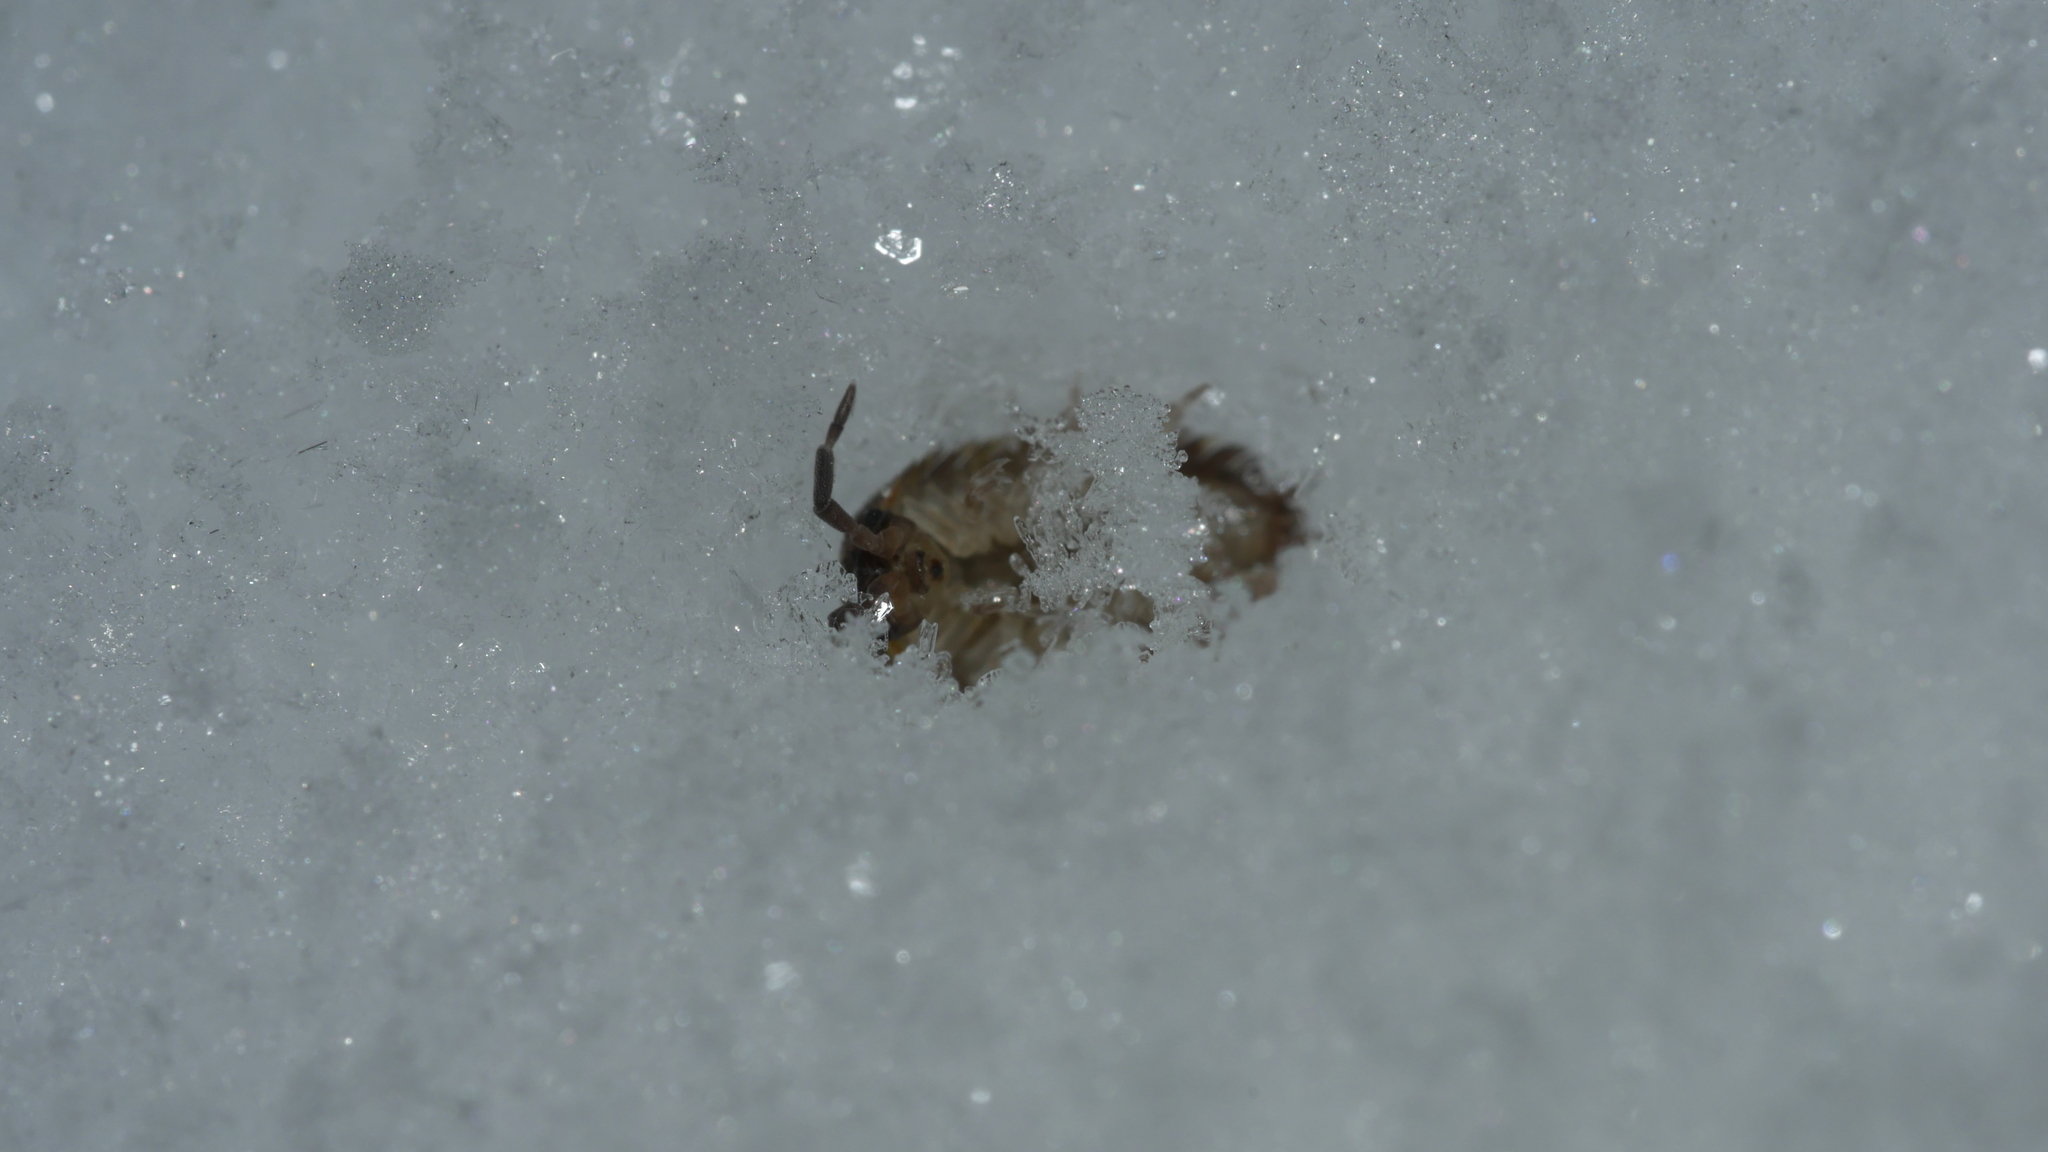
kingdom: Animalia
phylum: Arthropoda
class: Malacostraca
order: Isopoda
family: Porcellionidae
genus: Porcellio
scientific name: Porcellio scaber
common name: Common rough woodlouse
